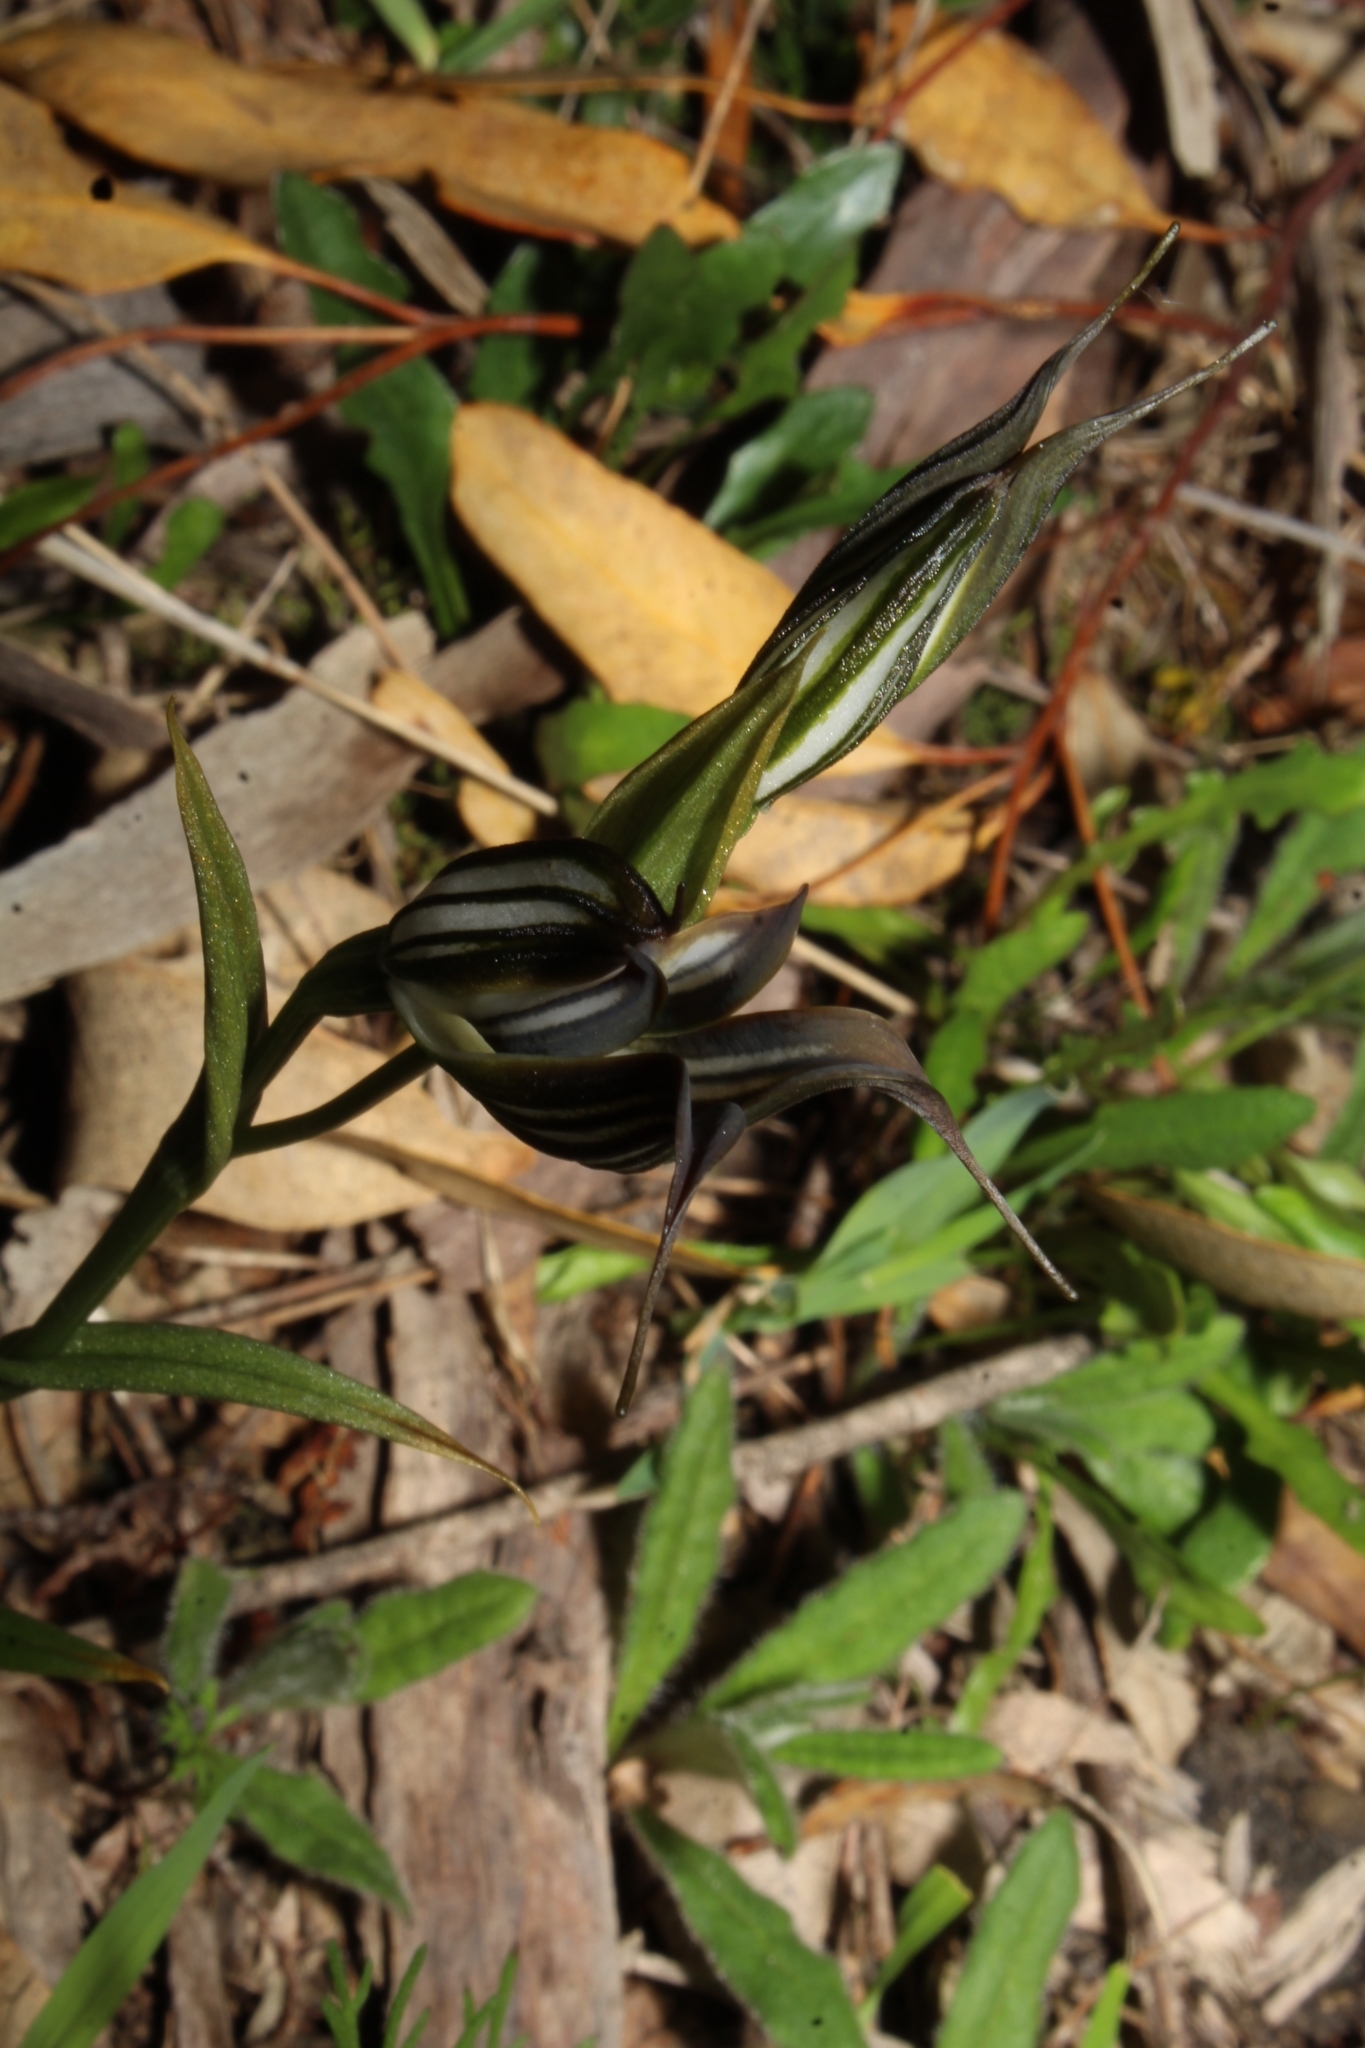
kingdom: Plantae
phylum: Tracheophyta
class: Liliopsida
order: Asparagales
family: Orchidaceae
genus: Pterostylis
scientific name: Pterostylis recurva
